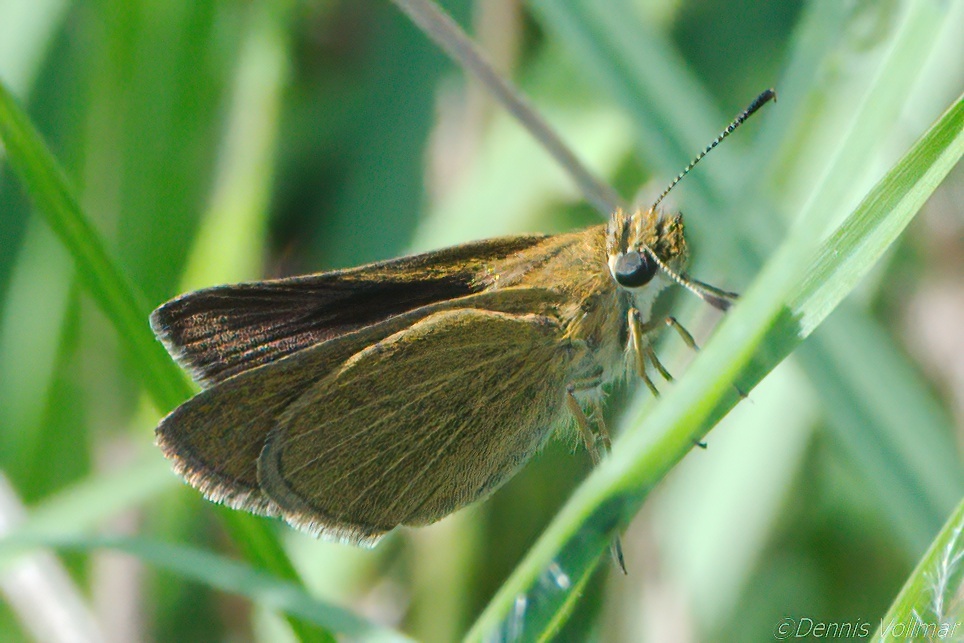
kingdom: Animalia
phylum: Arthropoda
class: Insecta
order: Lepidoptera
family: Hesperiidae
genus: Nastra
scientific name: Nastra lherminier
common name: Swarthy skipper
